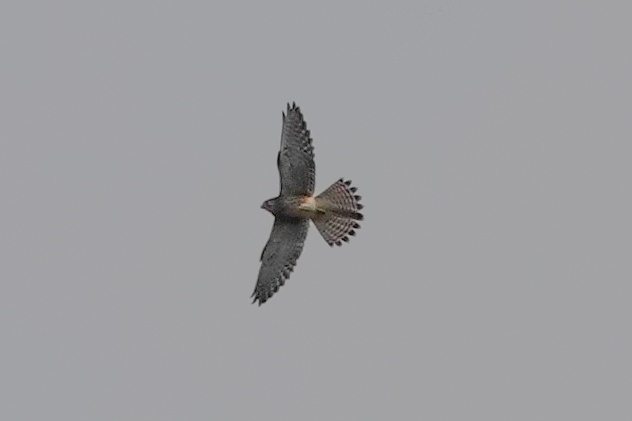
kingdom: Animalia
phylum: Chordata
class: Aves
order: Falconiformes
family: Falconidae
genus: Falco
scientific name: Falco tinnunculus
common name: Common kestrel
